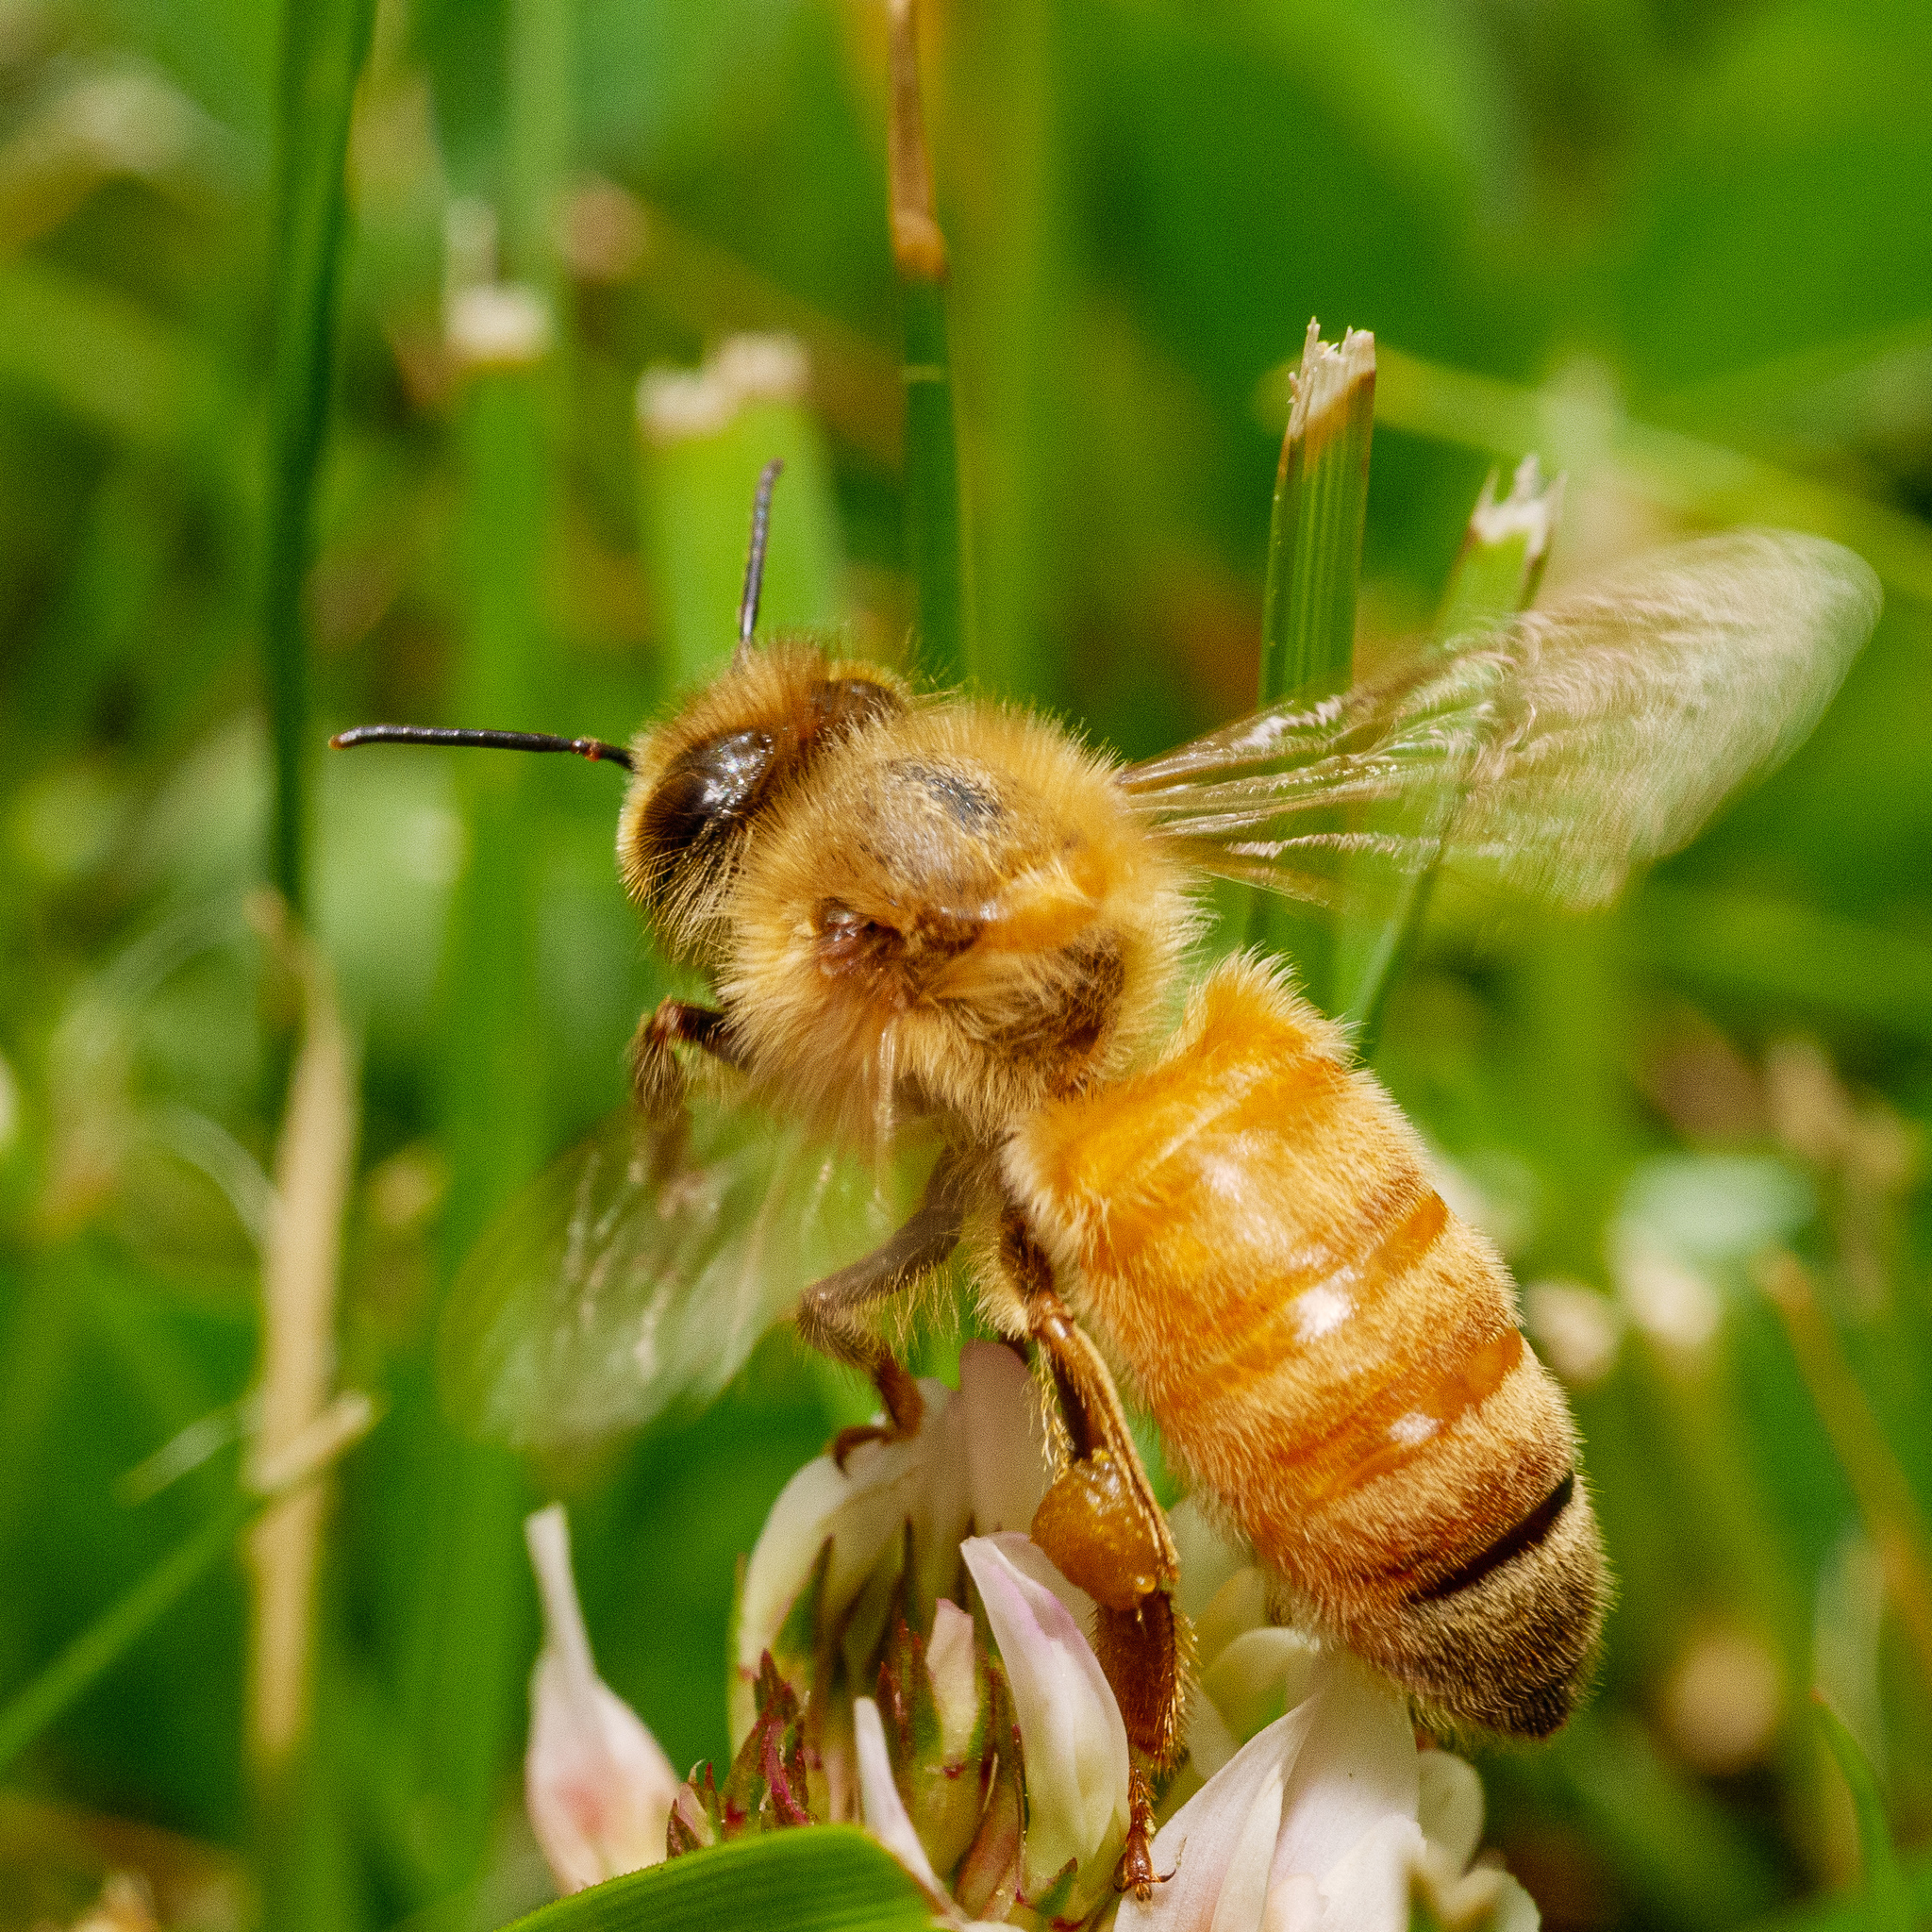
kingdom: Animalia
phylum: Arthropoda
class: Insecta
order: Hymenoptera
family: Apidae
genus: Apis
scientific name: Apis mellifera
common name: Honey bee
